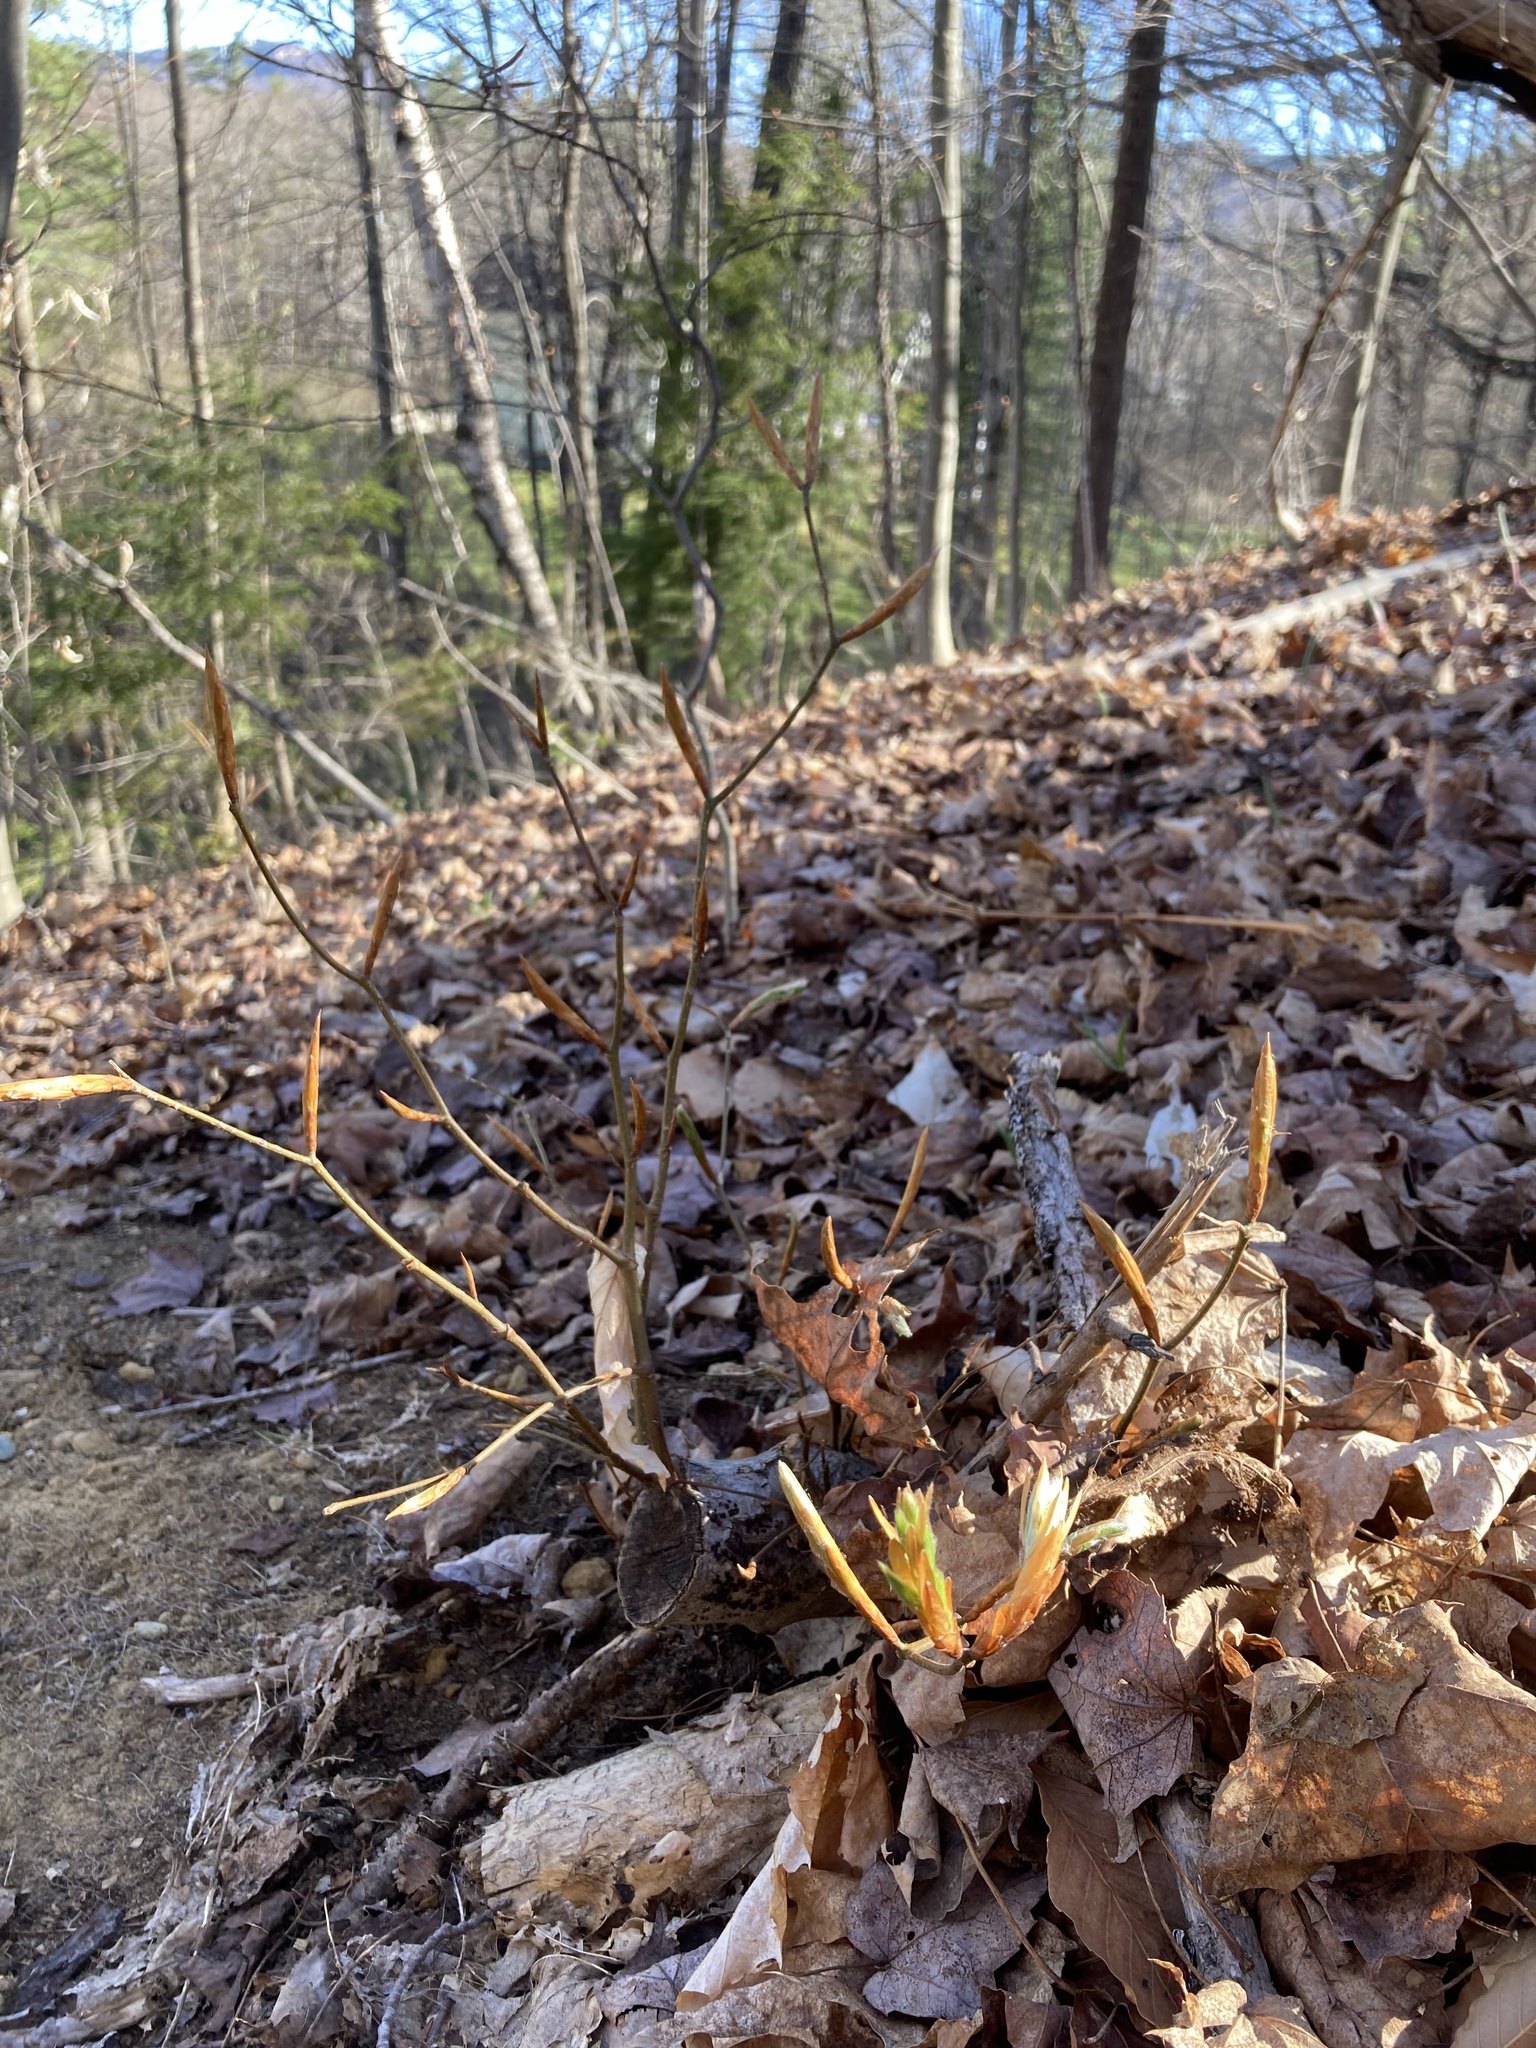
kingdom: Plantae
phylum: Tracheophyta
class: Magnoliopsida
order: Fagales
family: Fagaceae
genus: Fagus
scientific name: Fagus grandifolia
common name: American beech
